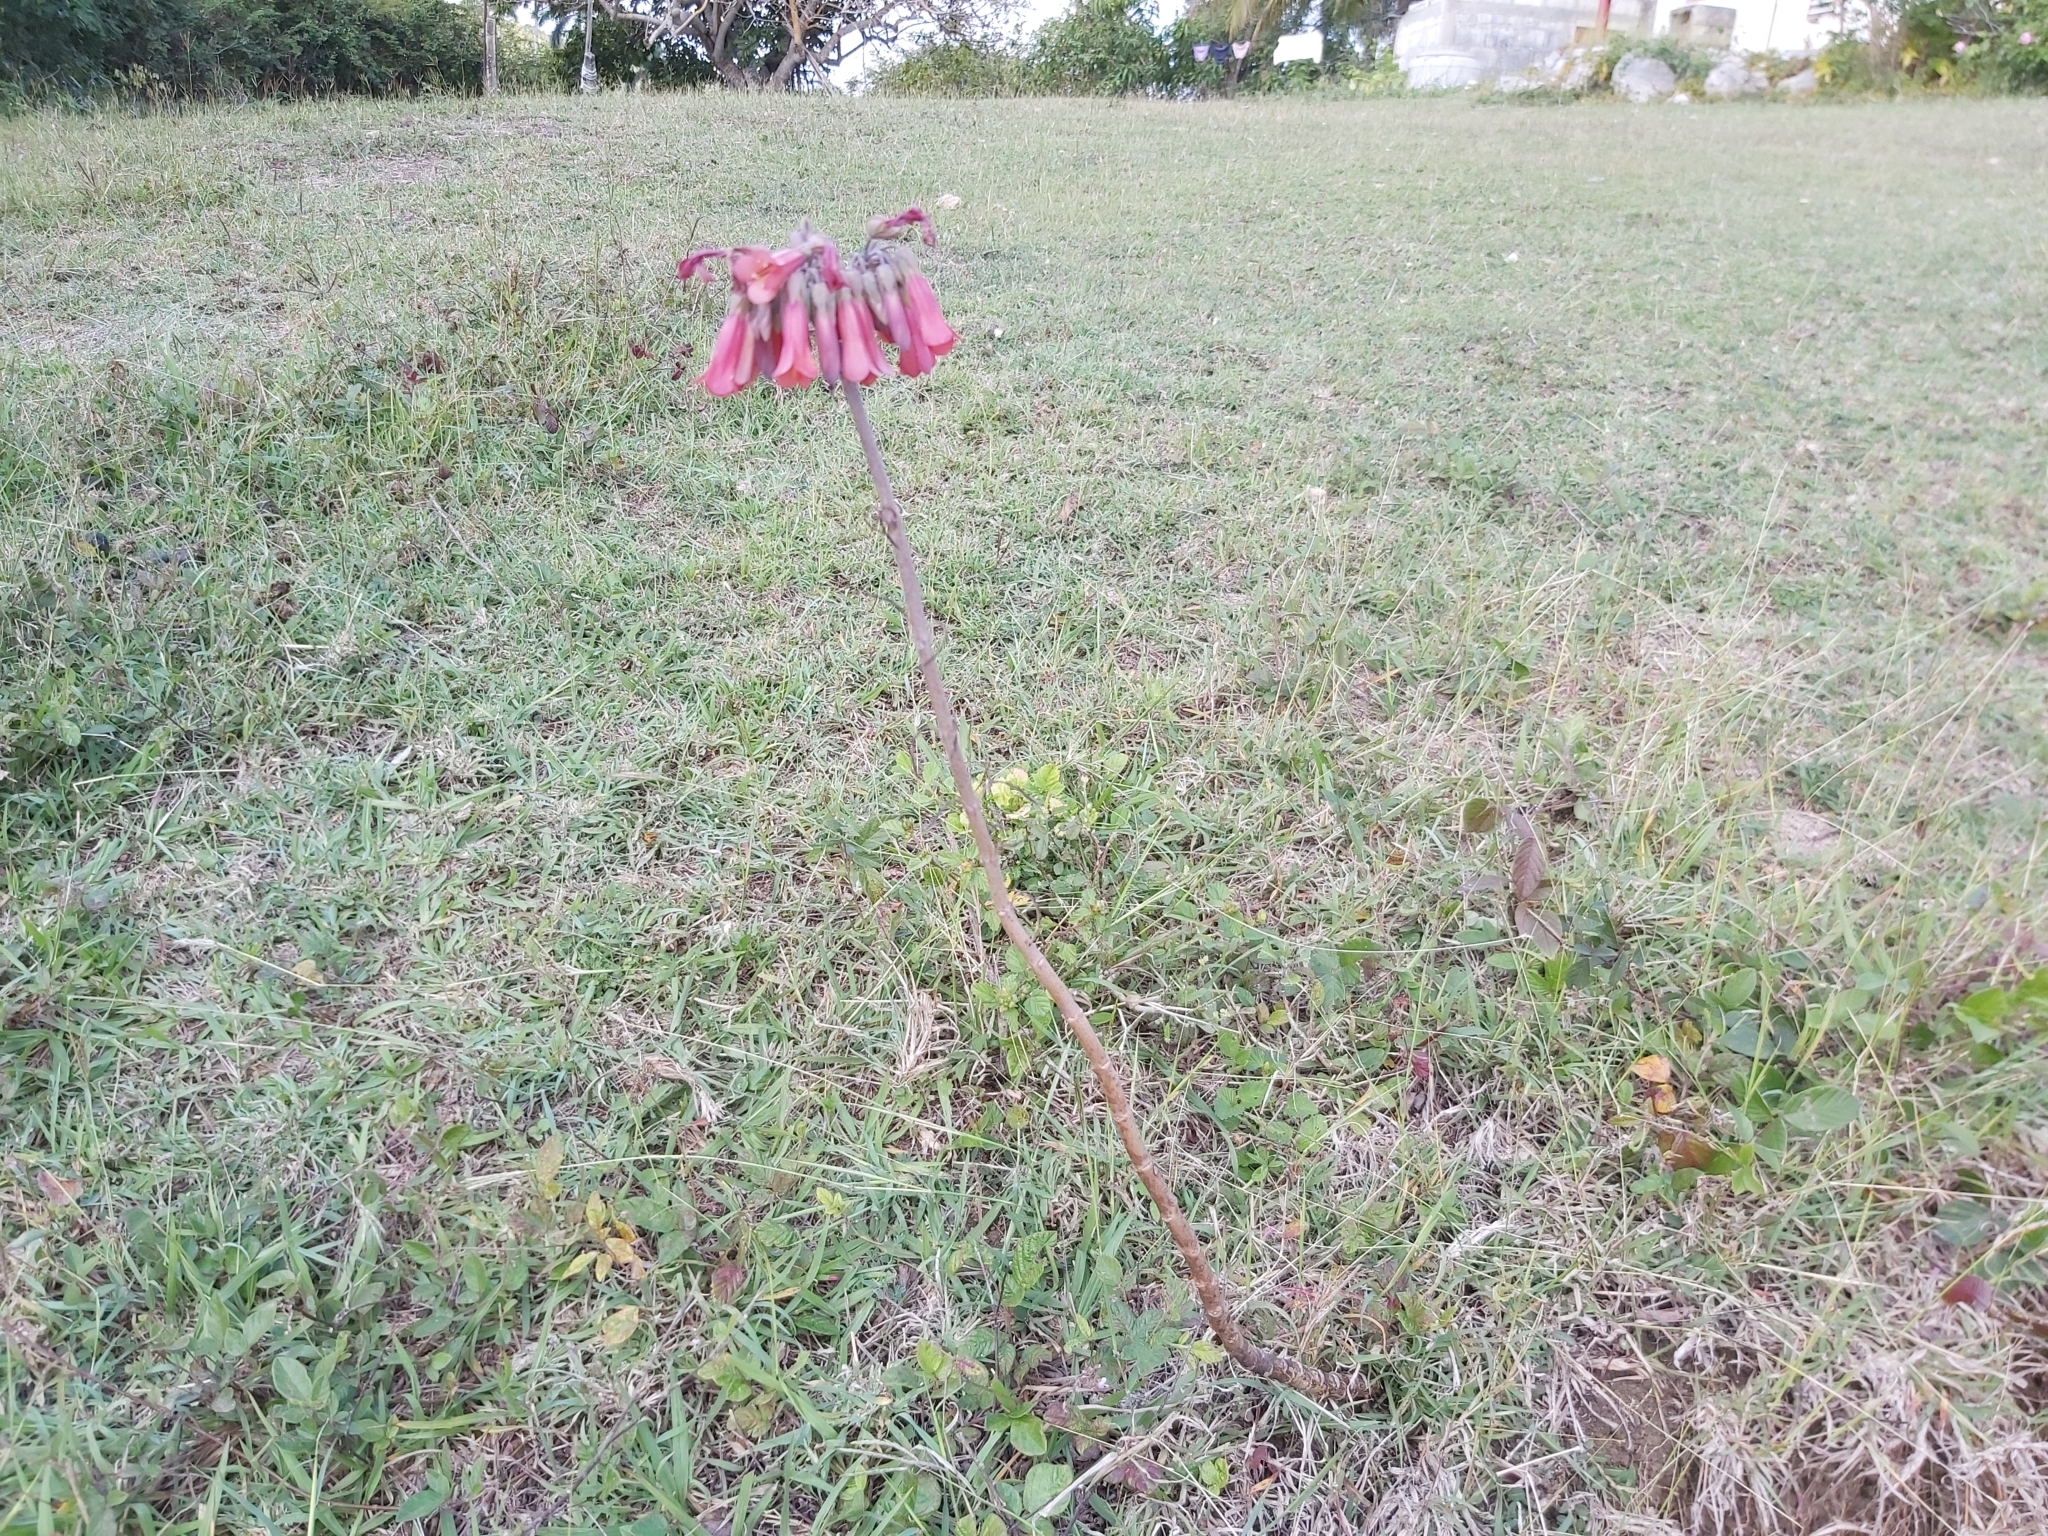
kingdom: Chromista
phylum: Ciliophora
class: Gymnostomatea
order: Spathidiida
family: Spathidiidae
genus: Bryophyllum
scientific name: Bryophyllum
